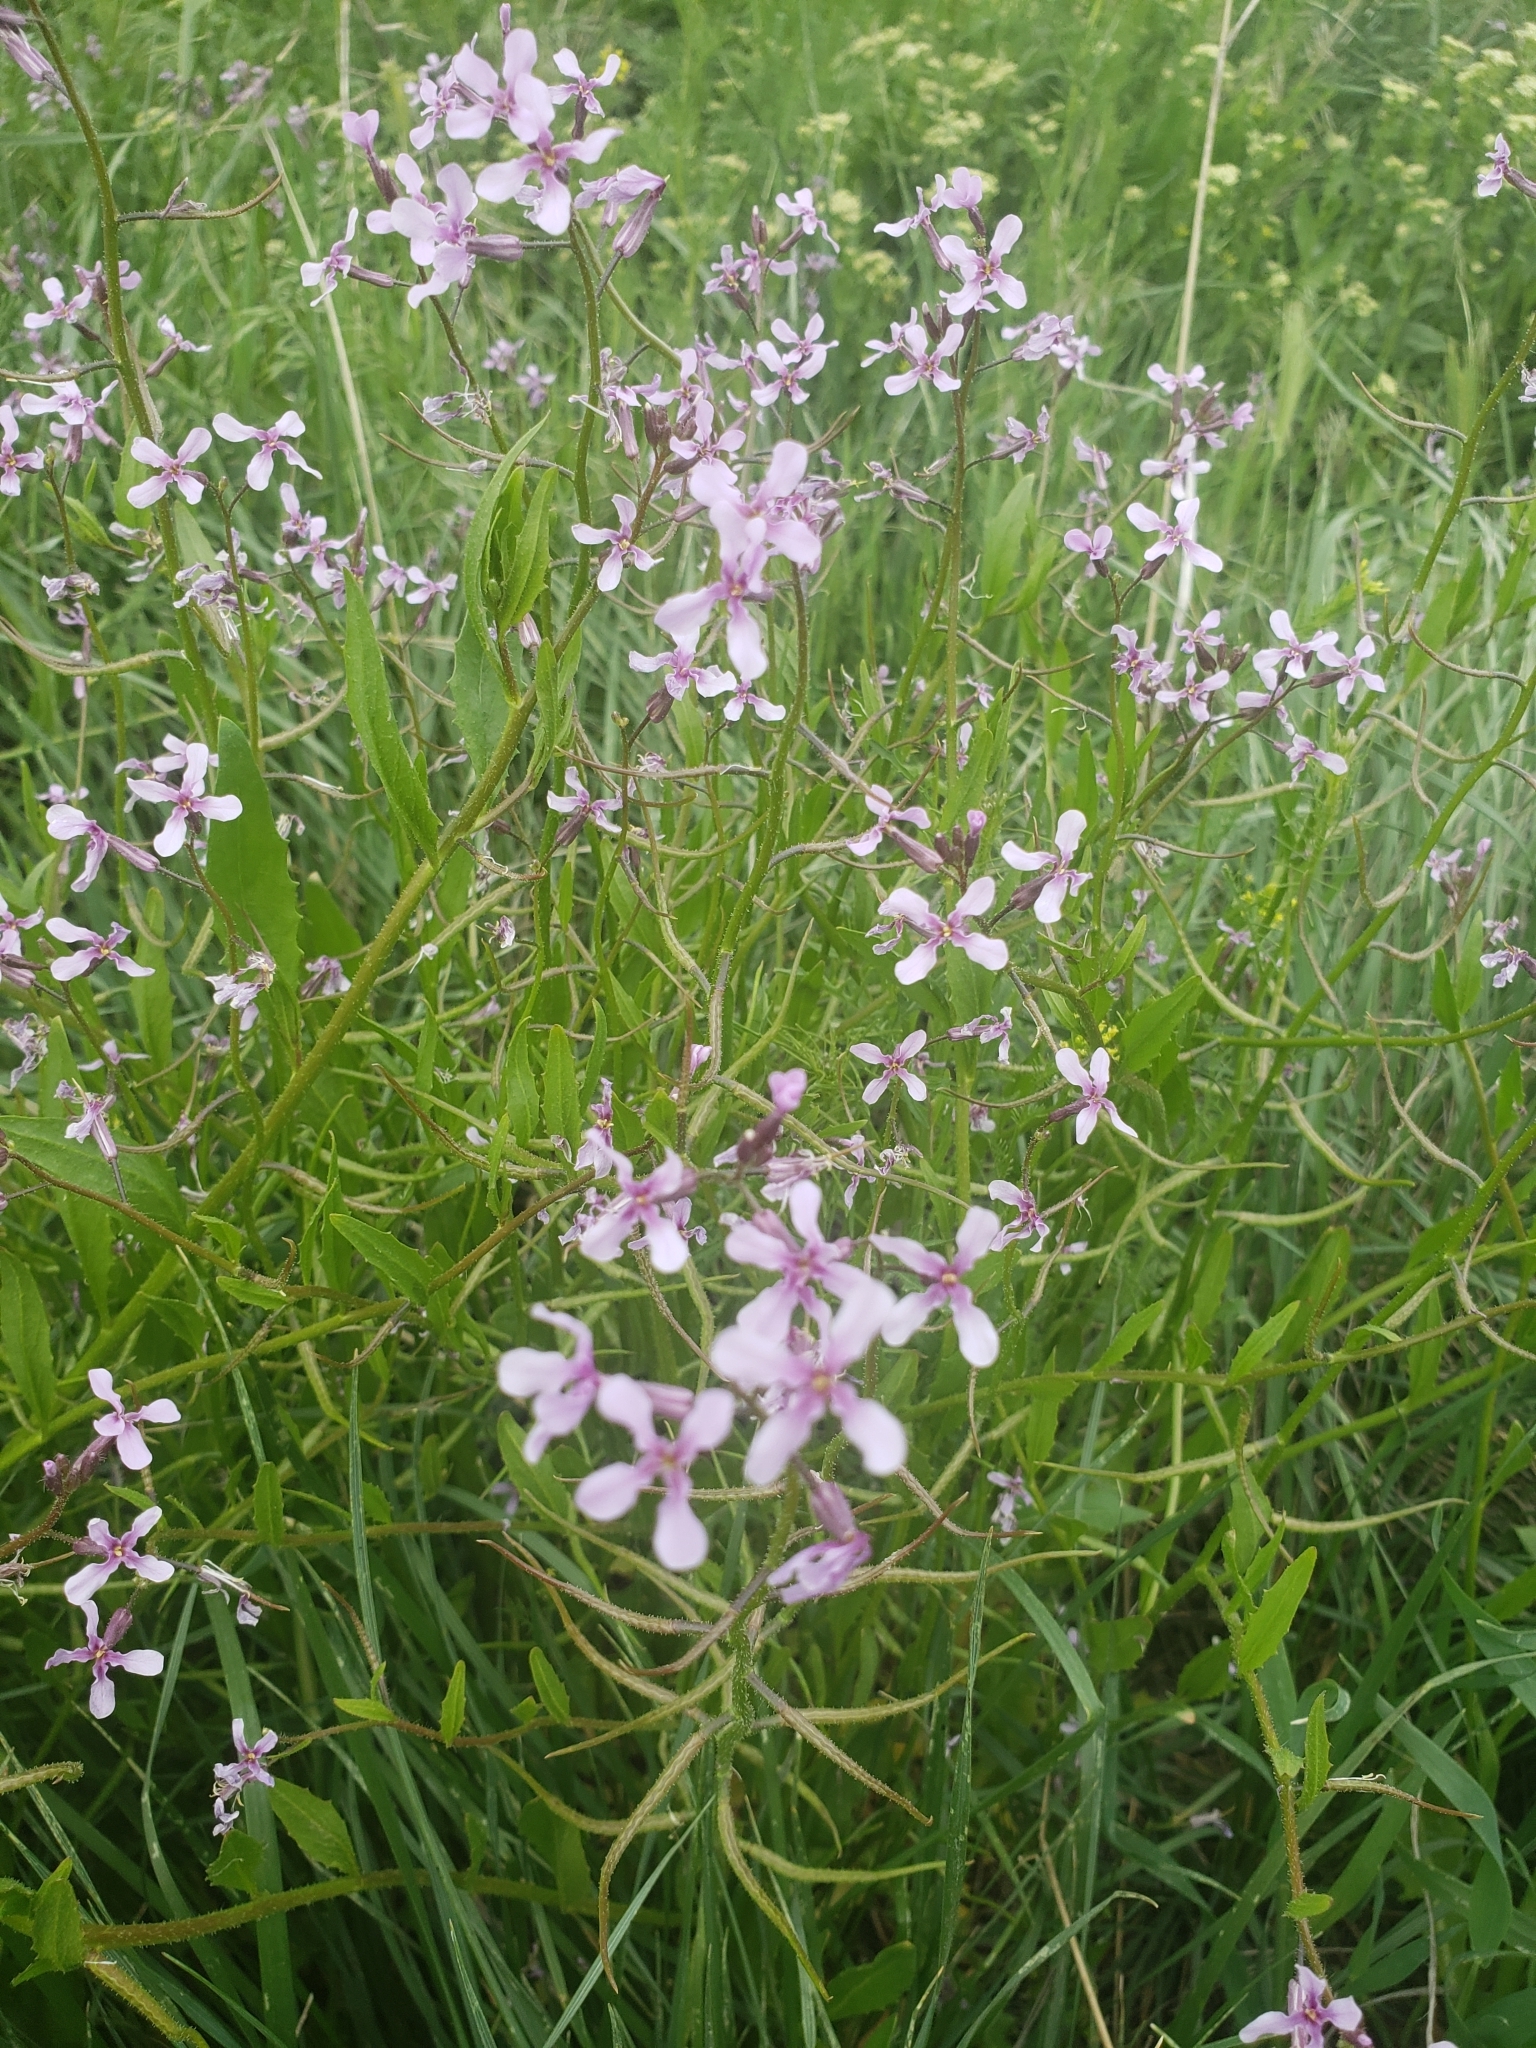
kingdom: Plantae
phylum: Tracheophyta
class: Magnoliopsida
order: Brassicales
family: Brassicaceae
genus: Chorispora
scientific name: Chorispora tenella
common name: Crossflower
